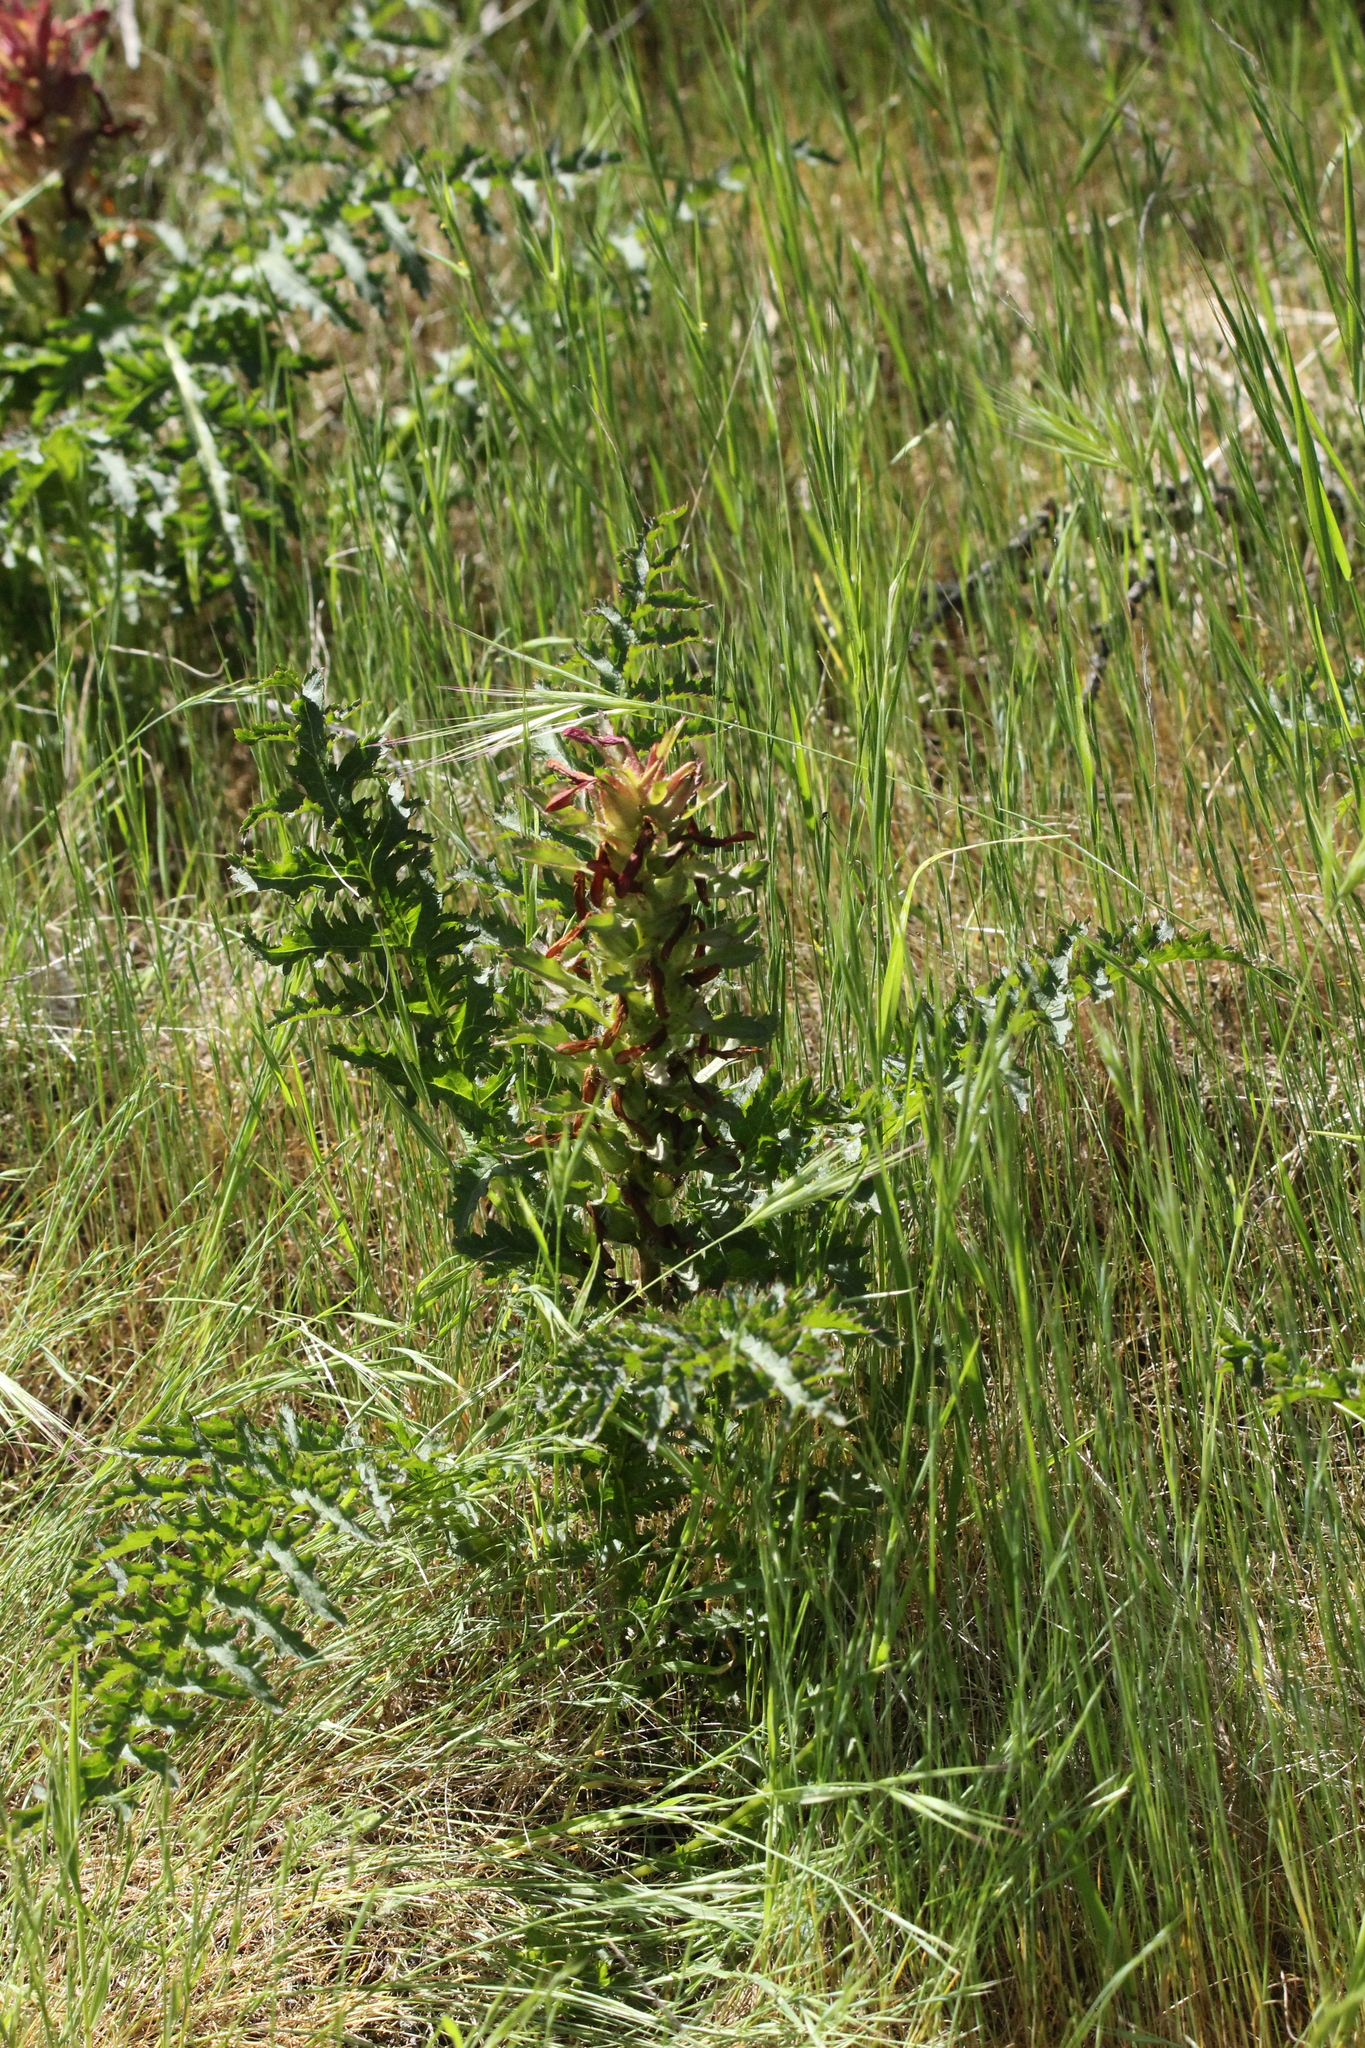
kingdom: Plantae
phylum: Tracheophyta
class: Magnoliopsida
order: Lamiales
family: Orobanchaceae
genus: Pedicularis
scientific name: Pedicularis densiflora
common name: Indian warrior
